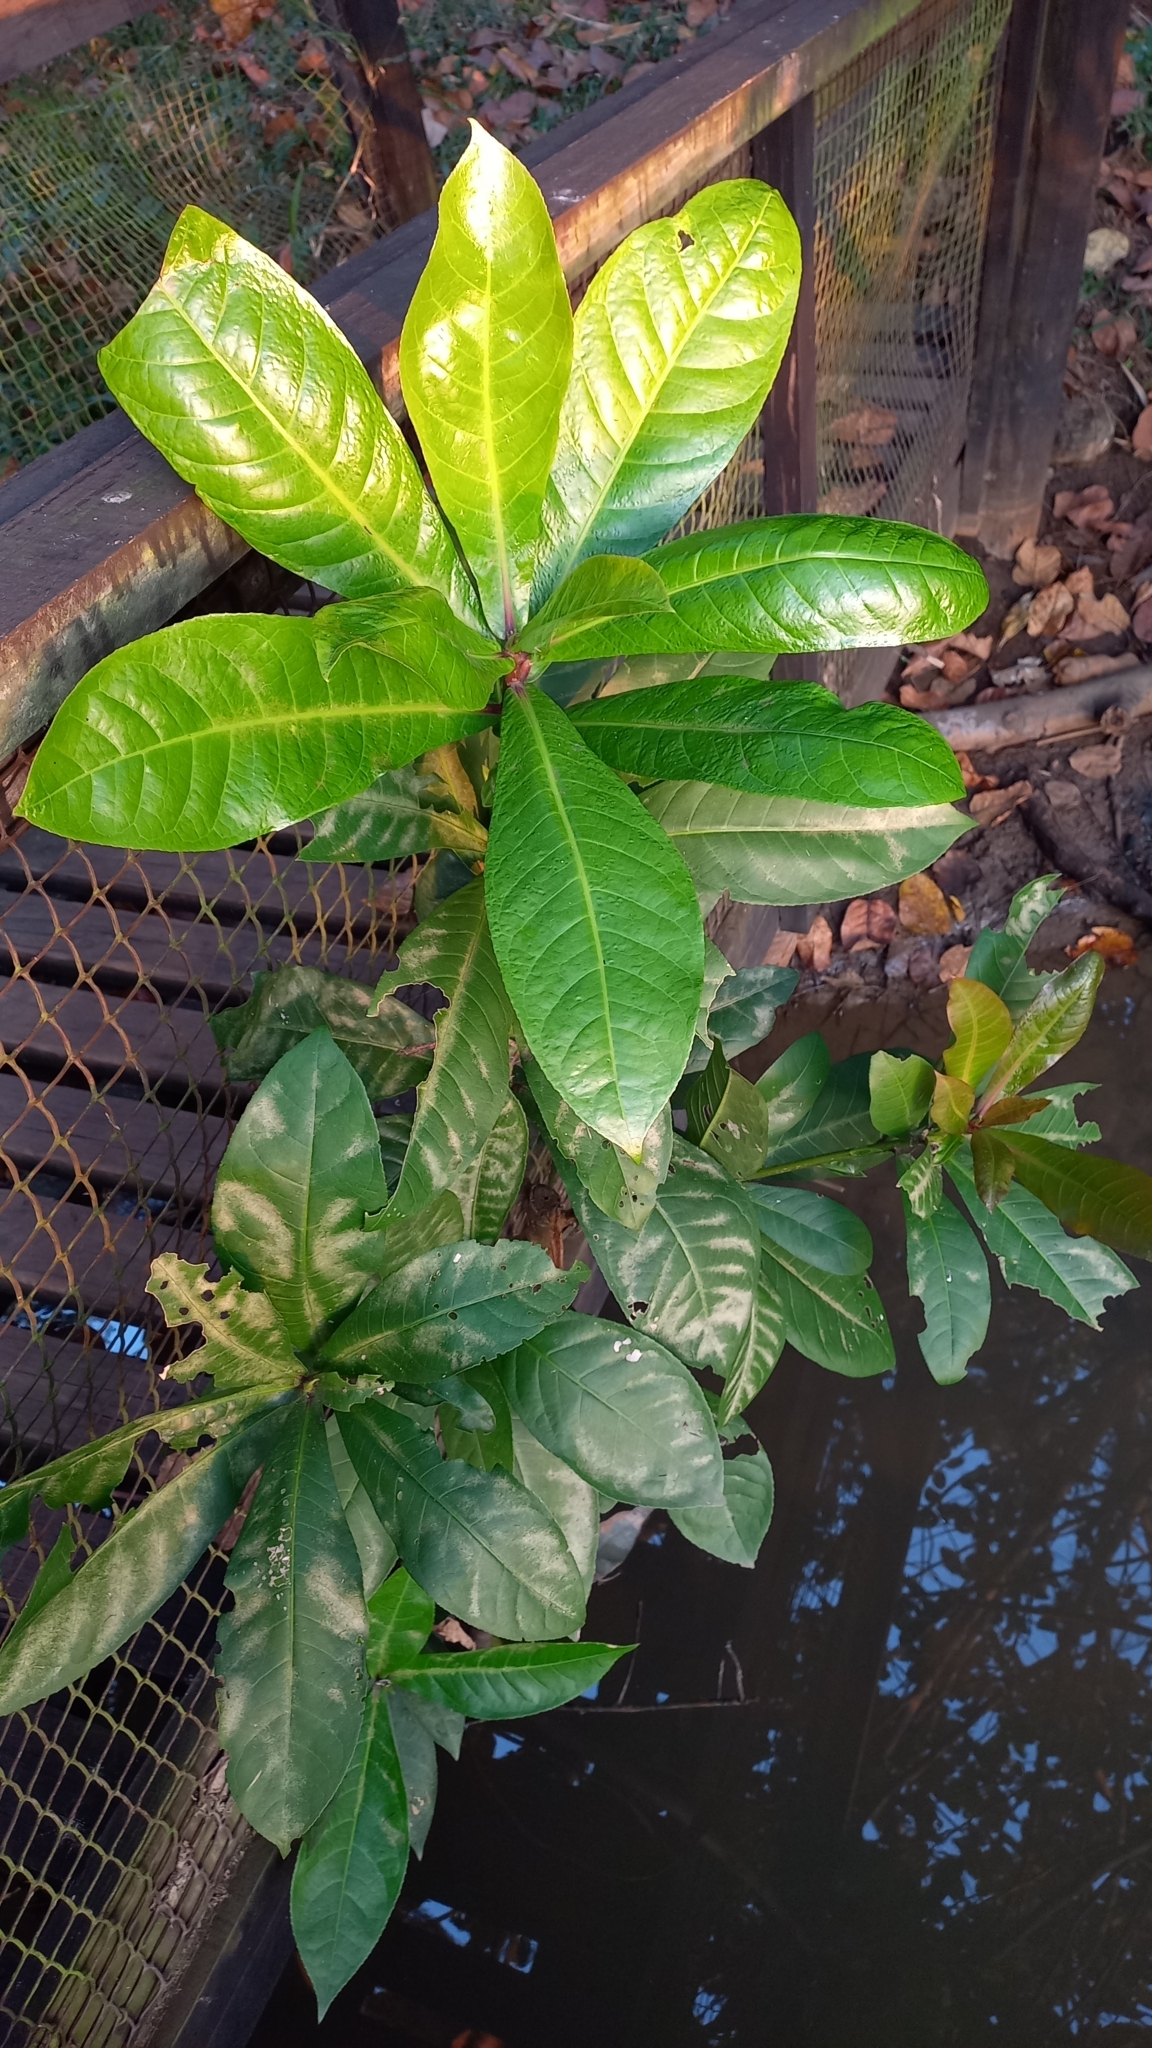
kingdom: Plantae
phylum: Tracheophyta
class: Magnoliopsida
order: Ericales
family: Lecythidaceae
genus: Barringtonia
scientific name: Barringtonia racemosa
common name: Brackwater mangrove
